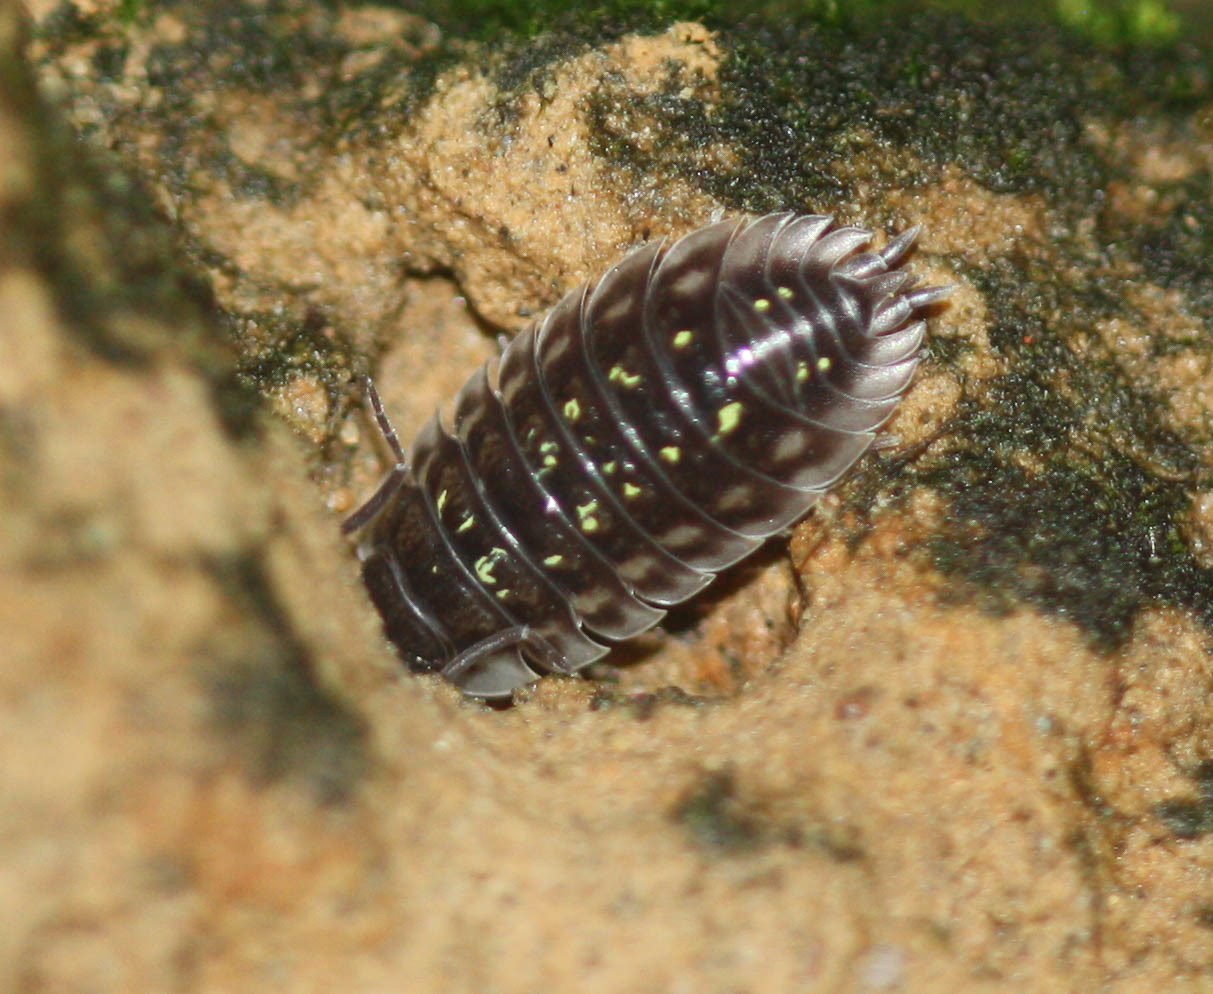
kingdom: Animalia
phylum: Arthropoda
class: Malacostraca
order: Isopoda
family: Oniscidae
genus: Oniscus
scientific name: Oniscus asellus
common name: Common shiny woodlouse
